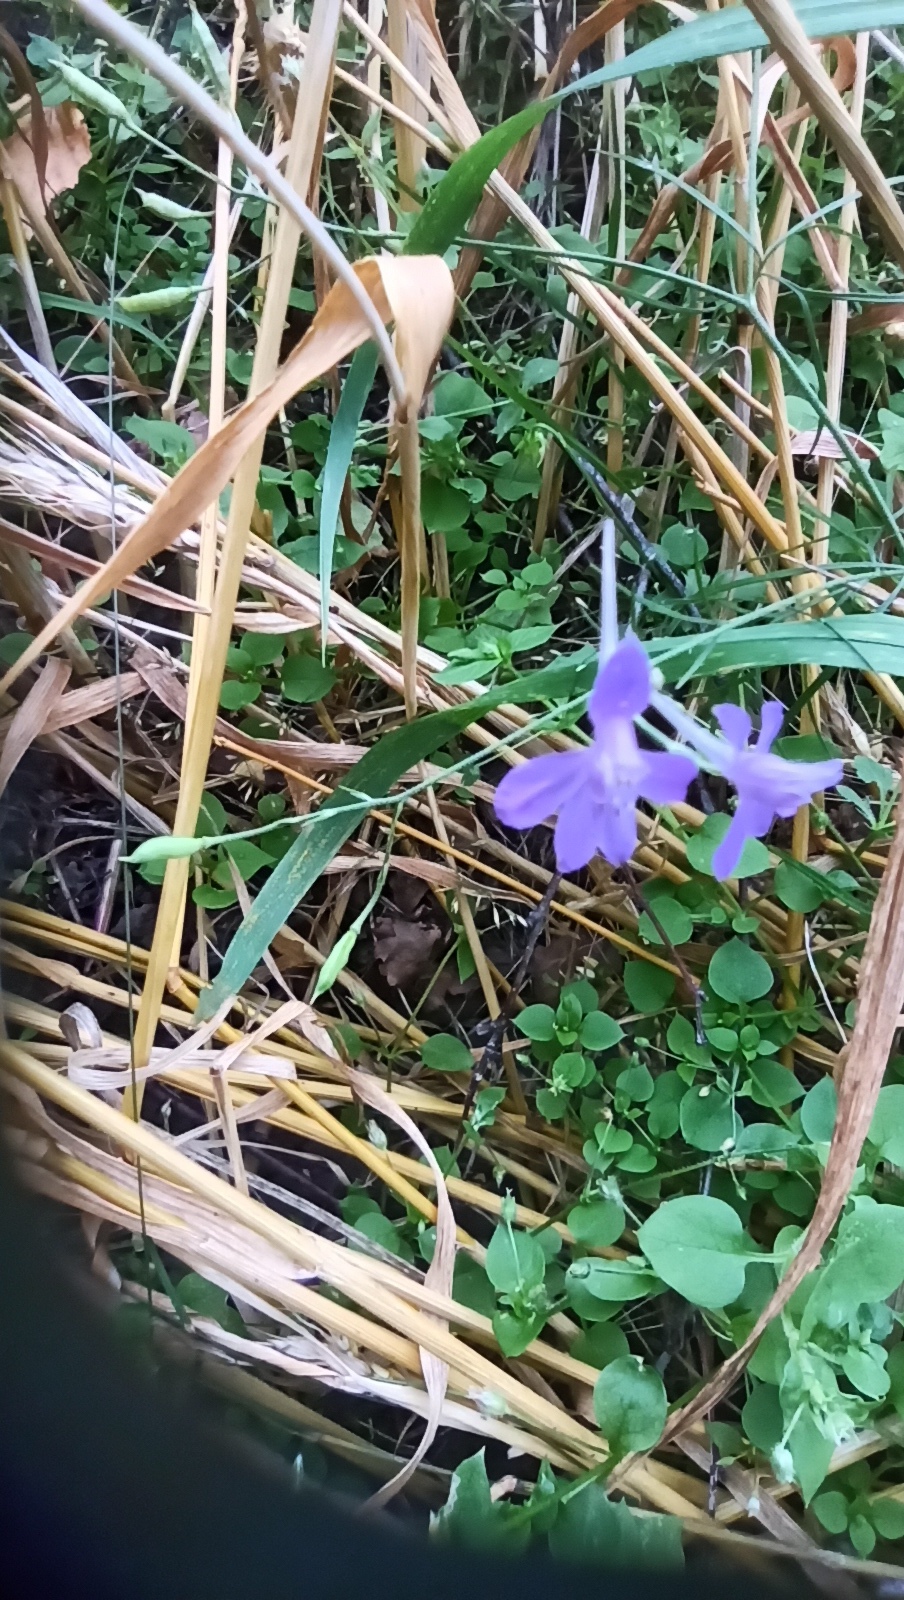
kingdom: Plantae
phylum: Tracheophyta
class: Magnoliopsida
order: Ranunculales
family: Ranunculaceae
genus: Delphinium
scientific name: Delphinium consolida
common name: Branching larkspur
